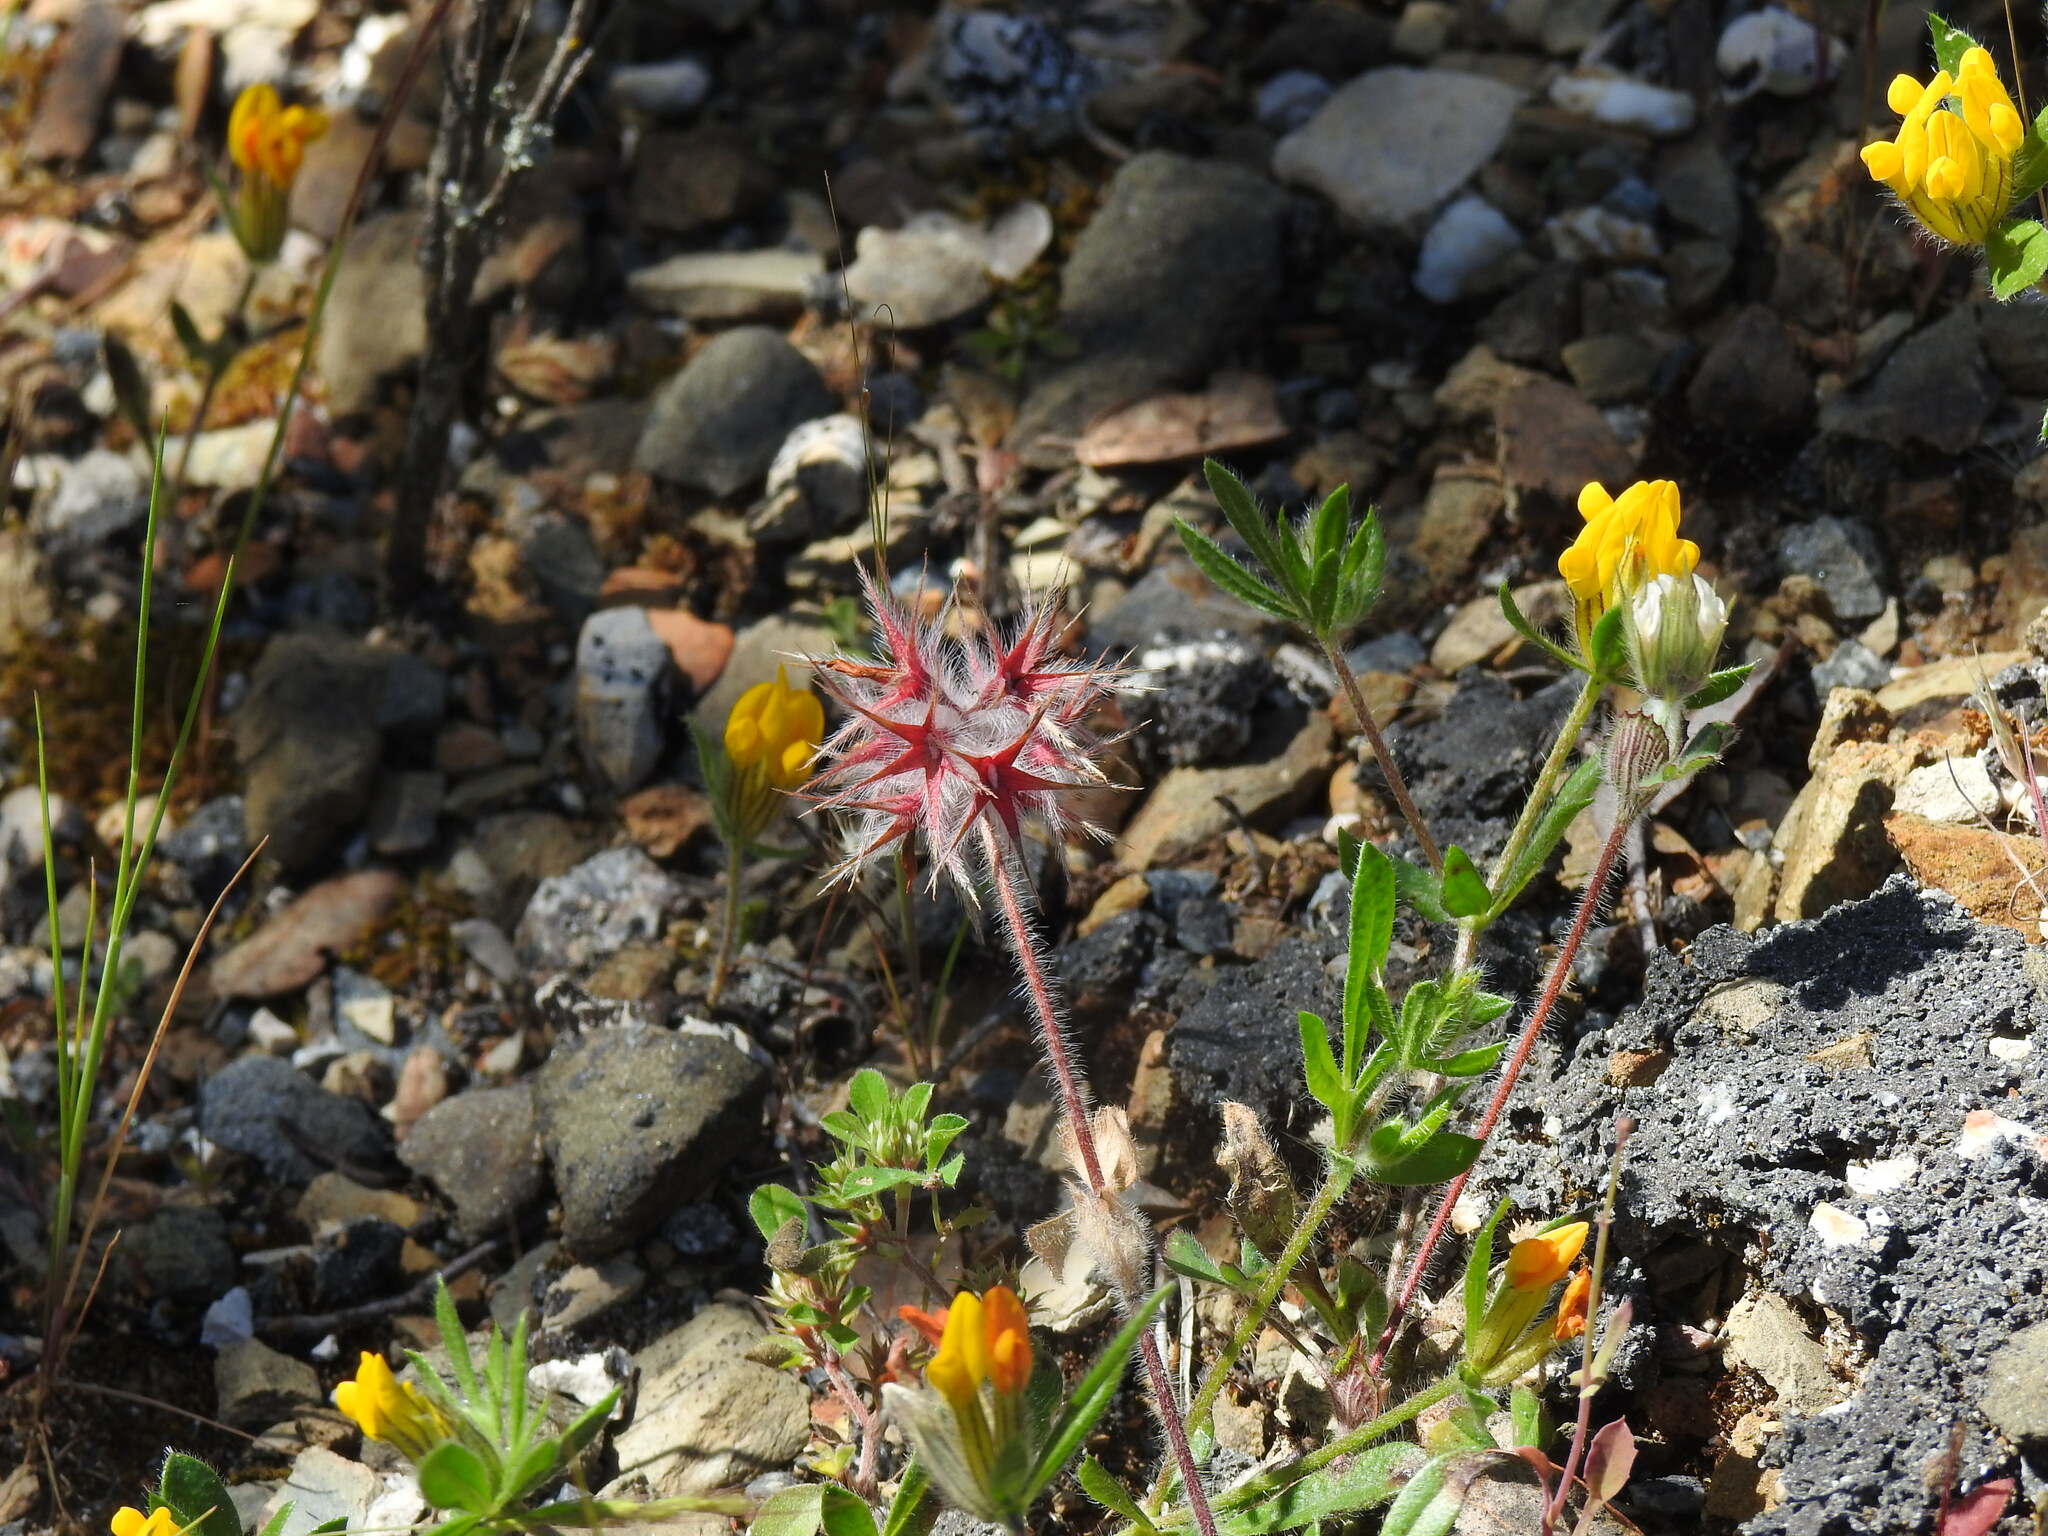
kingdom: Plantae
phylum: Tracheophyta
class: Magnoliopsida
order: Fabales
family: Fabaceae
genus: Trifolium
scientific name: Trifolium stellatum
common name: Starry clover
